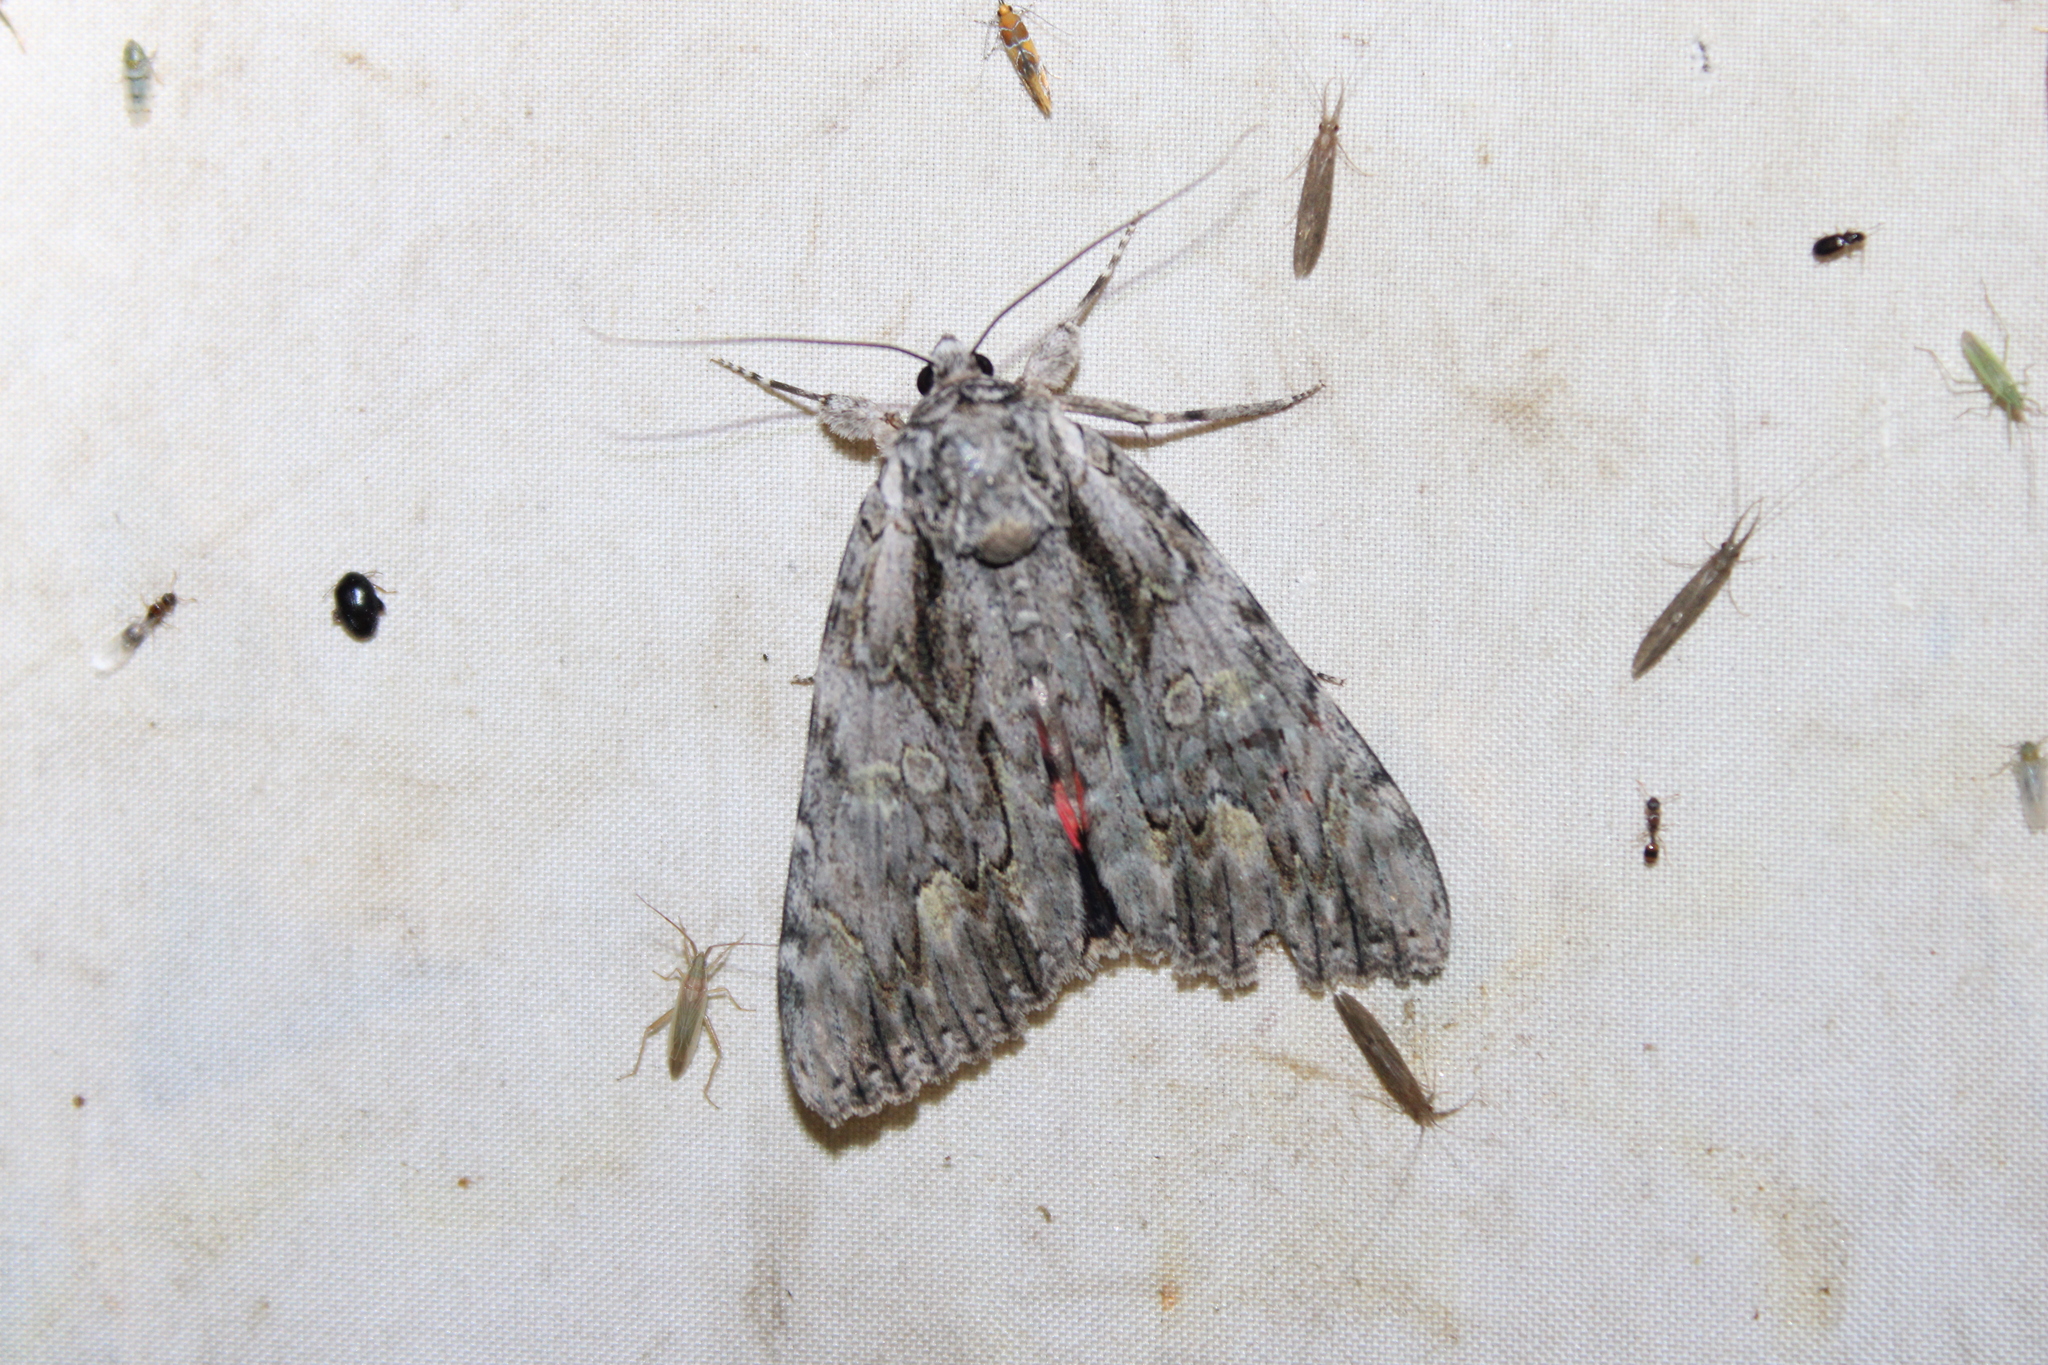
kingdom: Animalia
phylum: Arthropoda
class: Insecta
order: Lepidoptera
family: Erebidae
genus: Catocala
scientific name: Catocala coccinata
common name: Scarlet underwing
